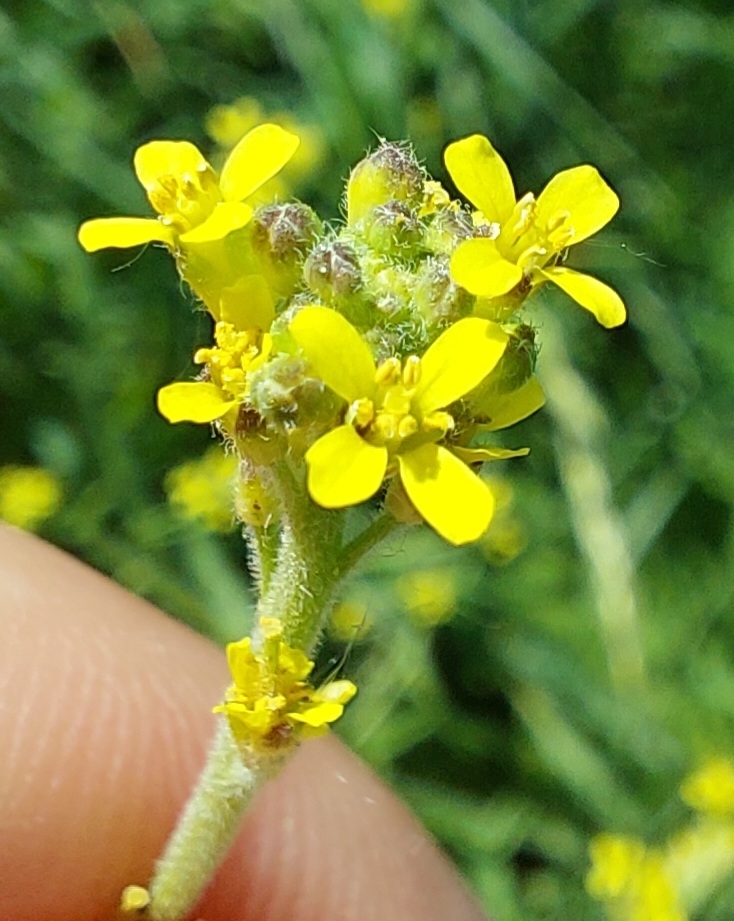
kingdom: Plantae
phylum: Tracheophyta
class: Magnoliopsida
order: Brassicales
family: Brassicaceae
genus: Sisymbrium
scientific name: Sisymbrium officinale
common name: Hedge mustard
